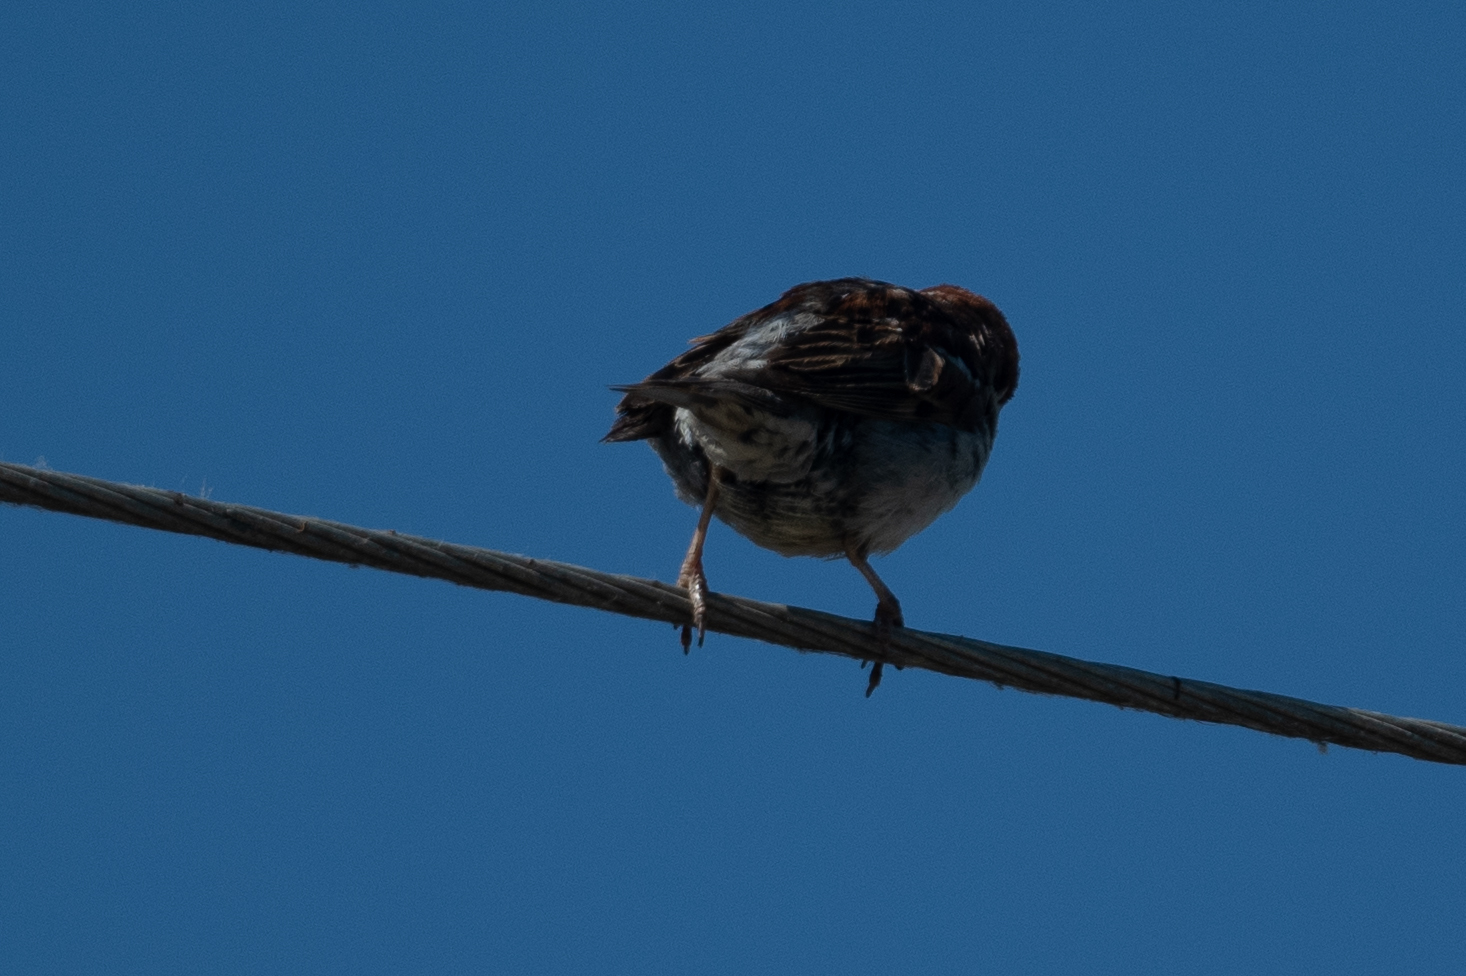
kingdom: Animalia
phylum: Chordata
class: Aves
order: Passeriformes
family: Passeridae
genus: Passer
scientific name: Passer domesticus
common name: House sparrow
